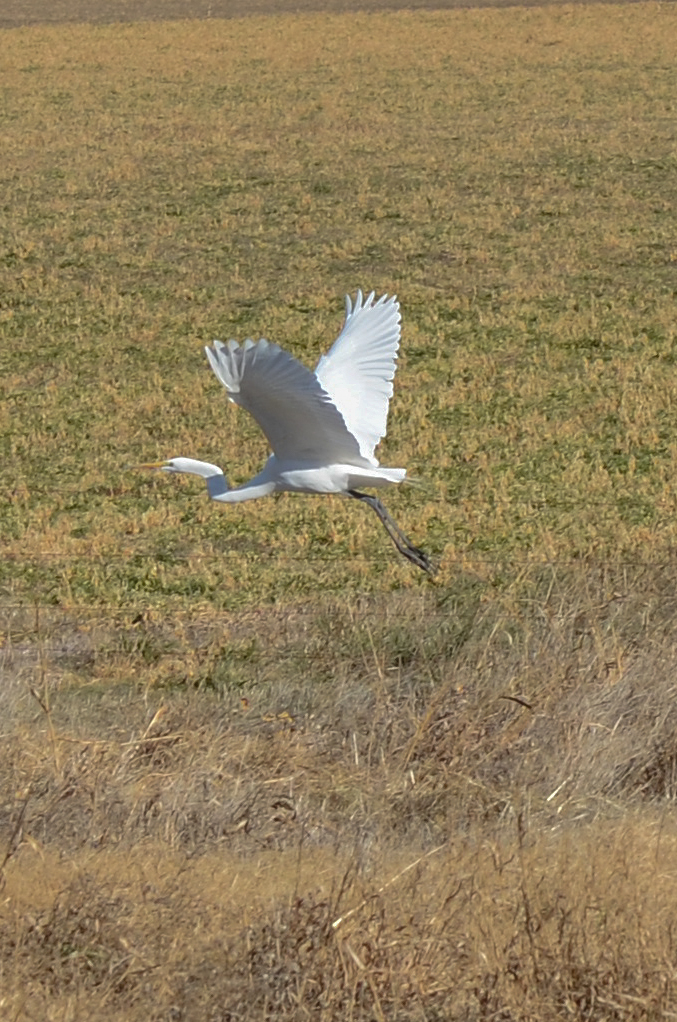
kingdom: Animalia
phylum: Chordata
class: Aves
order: Pelecaniformes
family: Ardeidae
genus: Ardea
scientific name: Ardea alba
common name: Great egret
